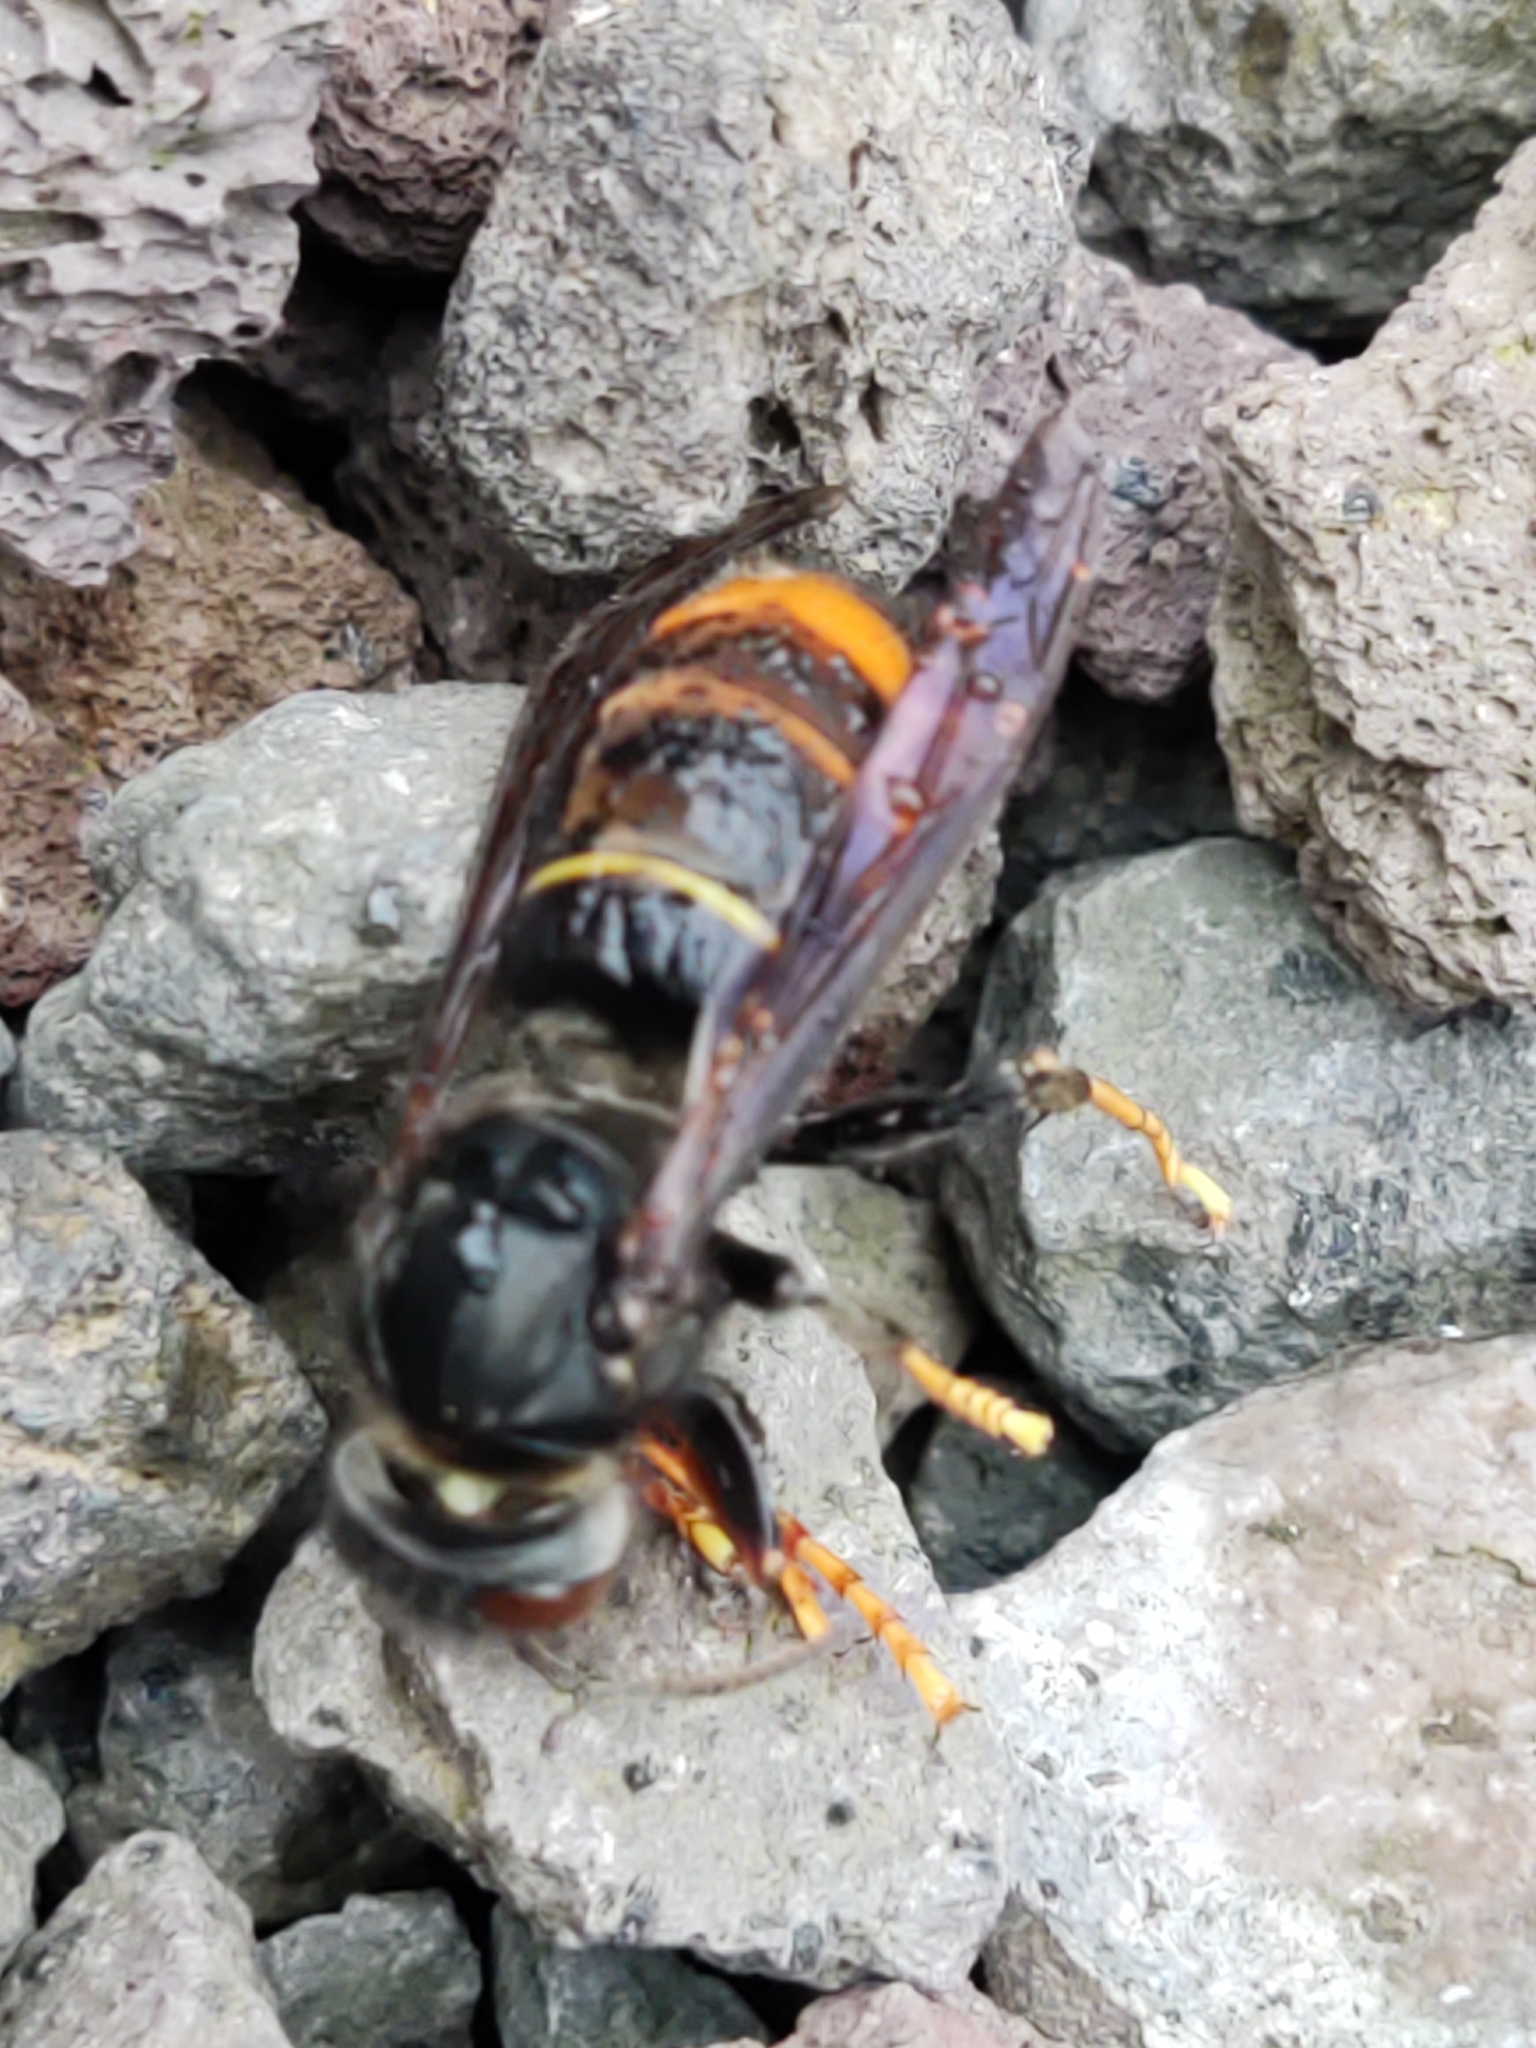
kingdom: Animalia
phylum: Arthropoda
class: Insecta
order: Hymenoptera
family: Vespidae
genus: Vespa
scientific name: Vespa velutina
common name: Asian hornet
